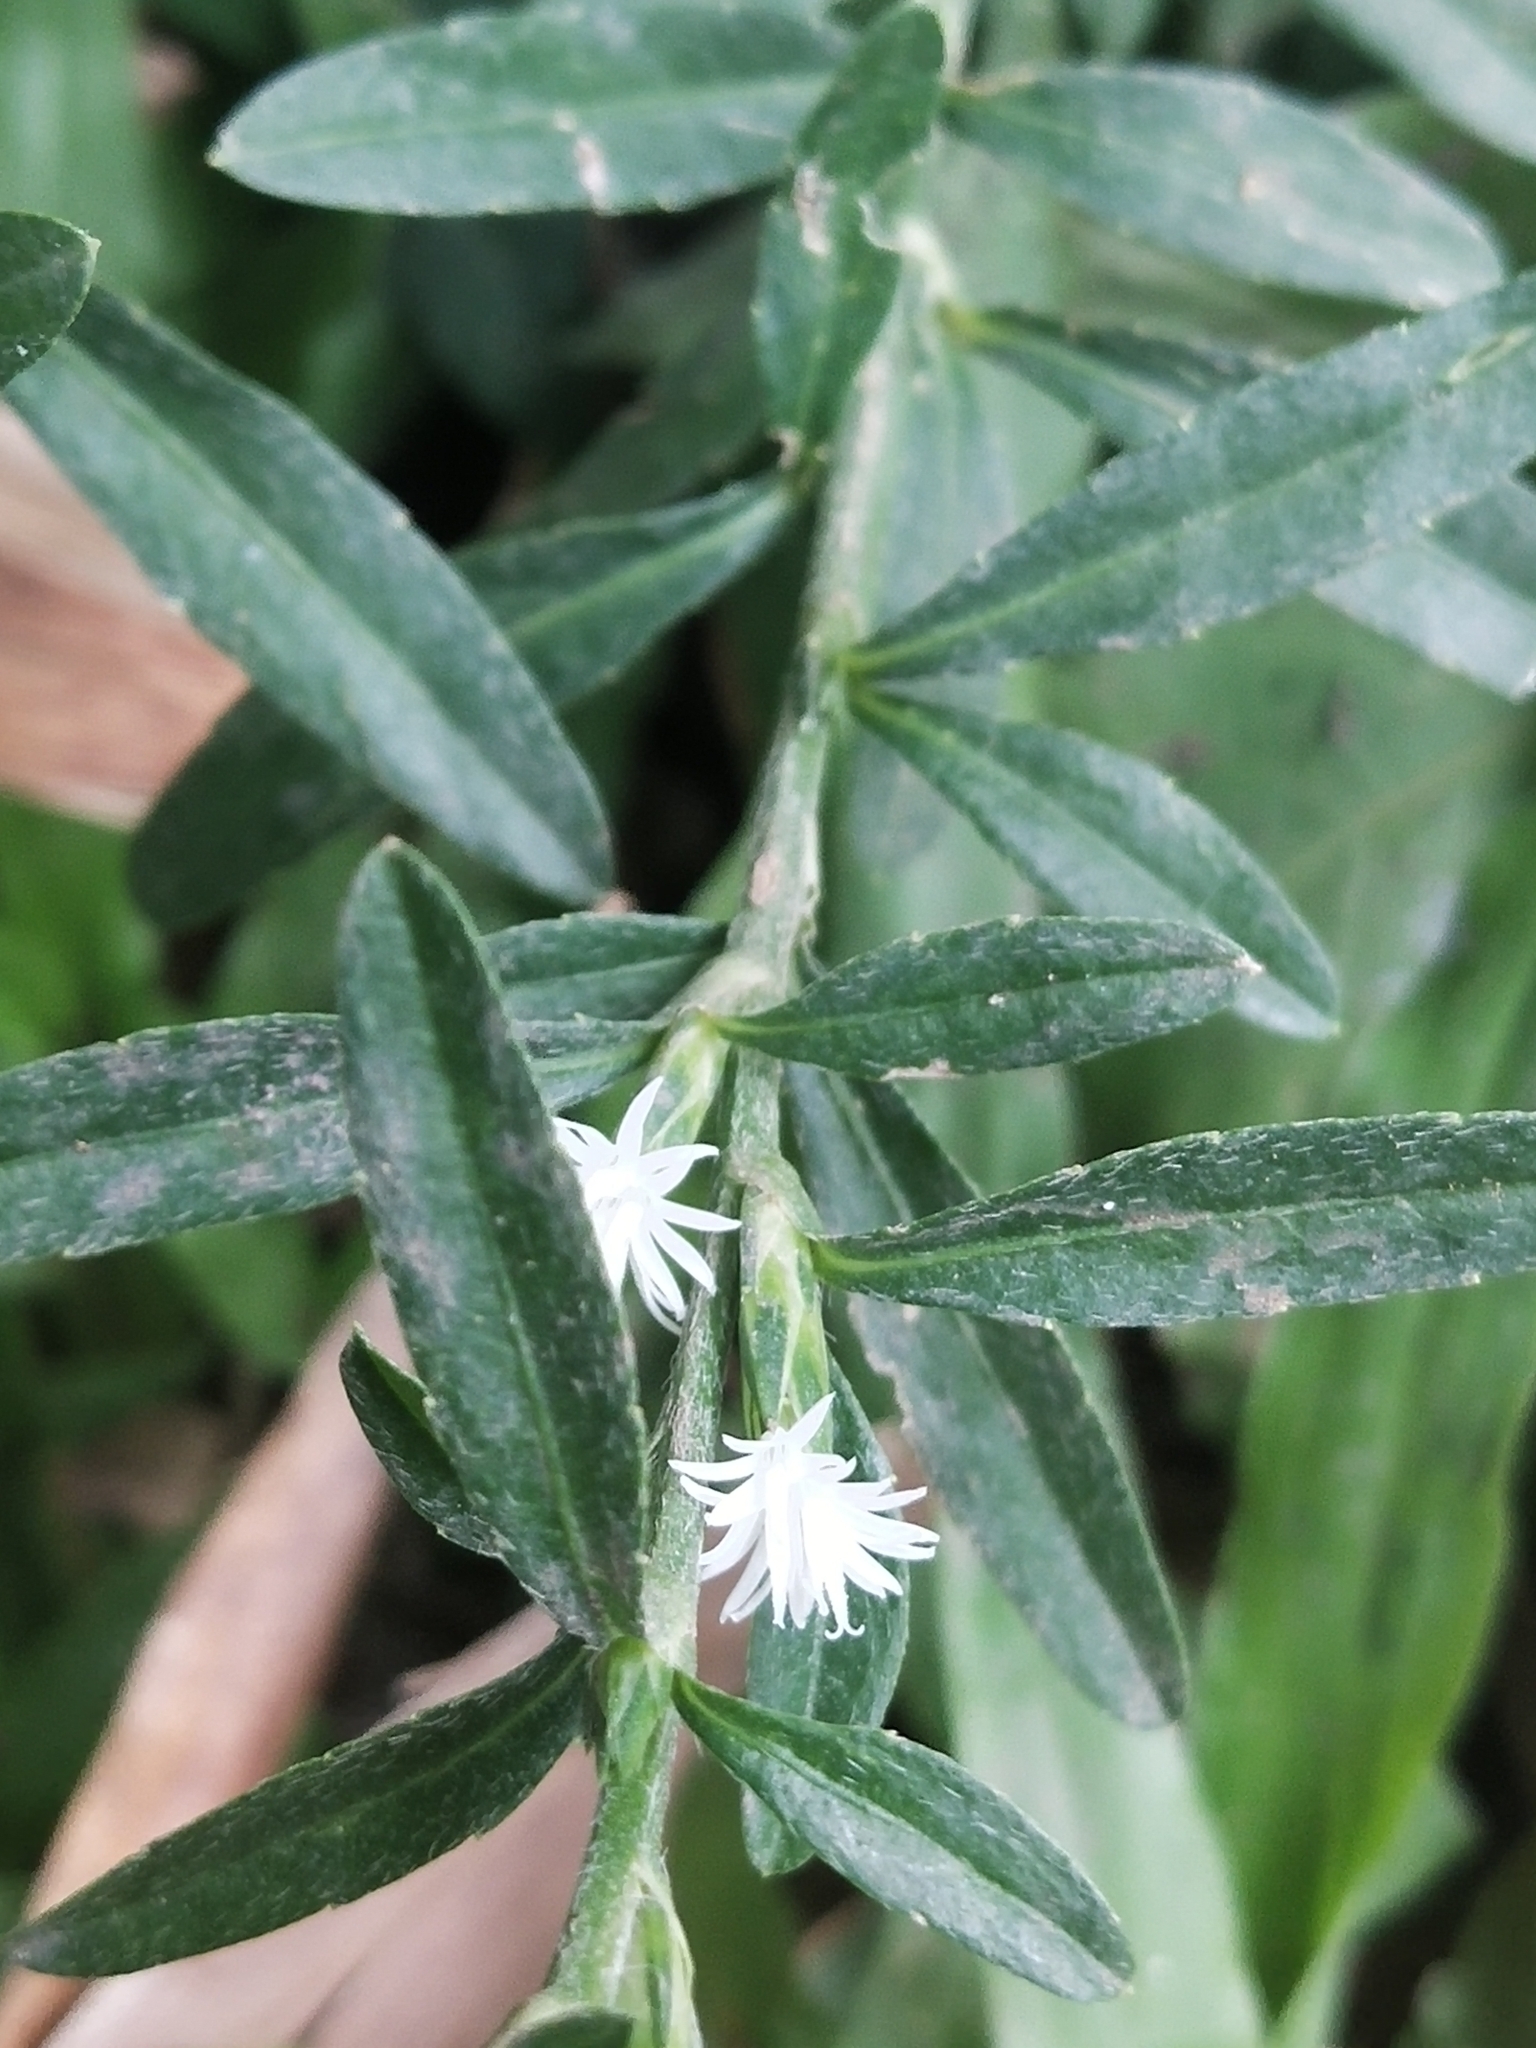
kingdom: Plantae
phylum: Tracheophyta
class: Magnoliopsida
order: Asterales
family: Asteraceae
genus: Elephantopus
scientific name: Elephantopus mollis
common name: Soft elephantsfoot
